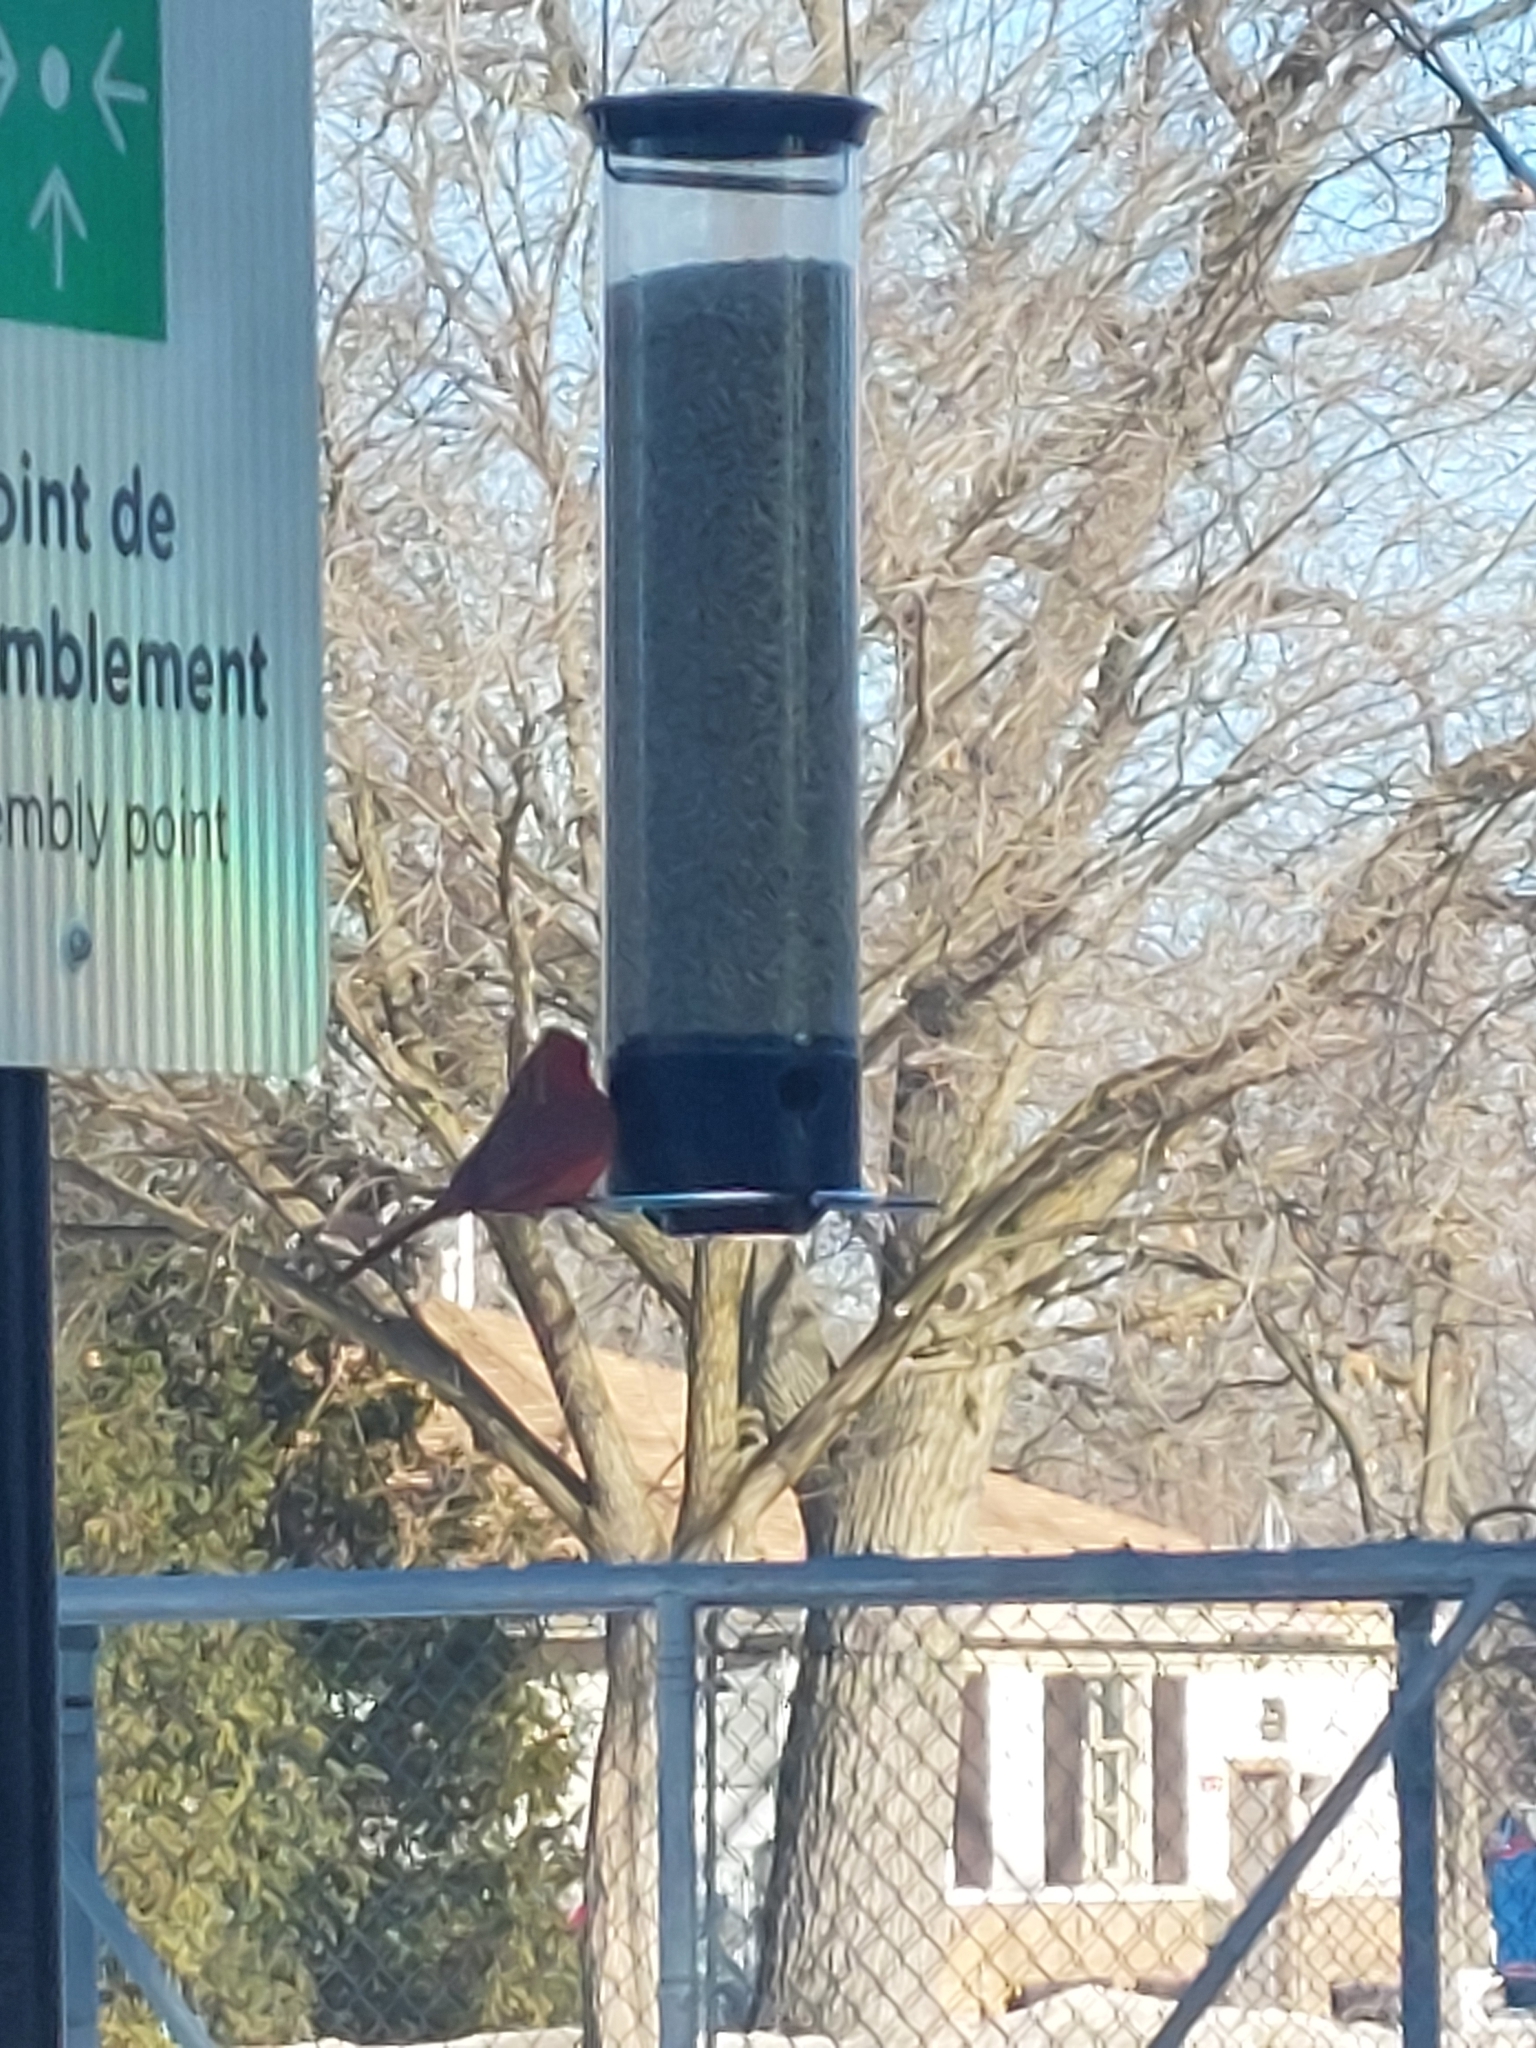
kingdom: Animalia
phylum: Chordata
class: Aves
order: Passeriformes
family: Cardinalidae
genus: Cardinalis
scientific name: Cardinalis cardinalis
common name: Northern cardinal
